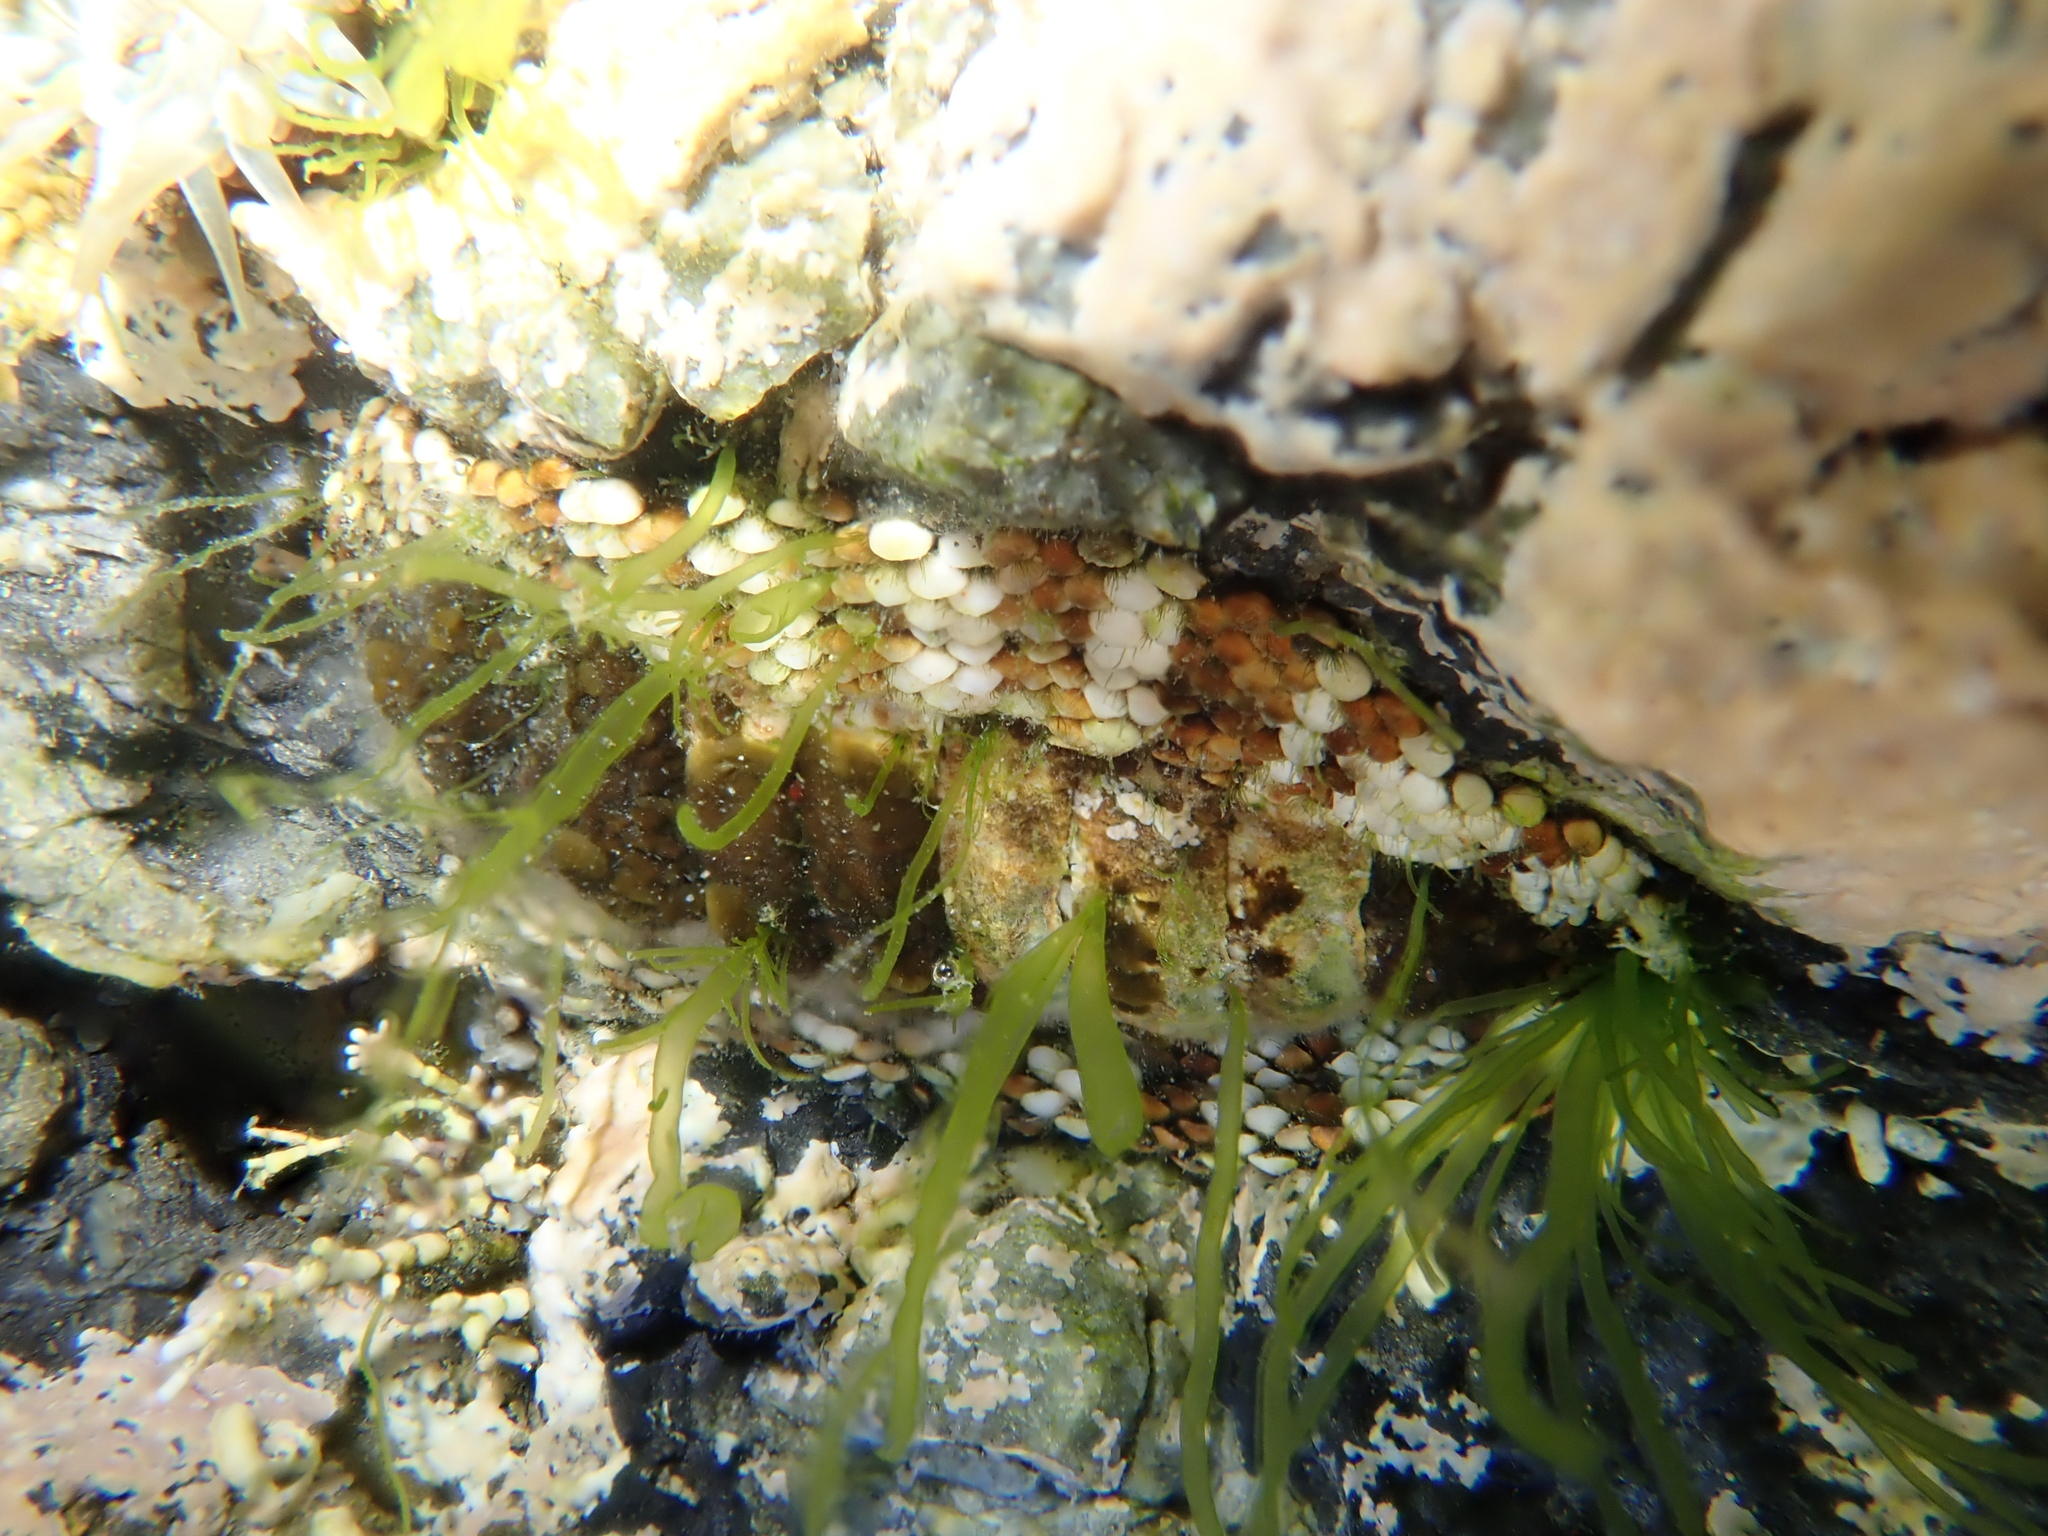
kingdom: Animalia
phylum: Mollusca
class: Polyplacophora
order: Chitonida
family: Chitonidae
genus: Sypharochiton
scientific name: Sypharochiton pelliserpentis
